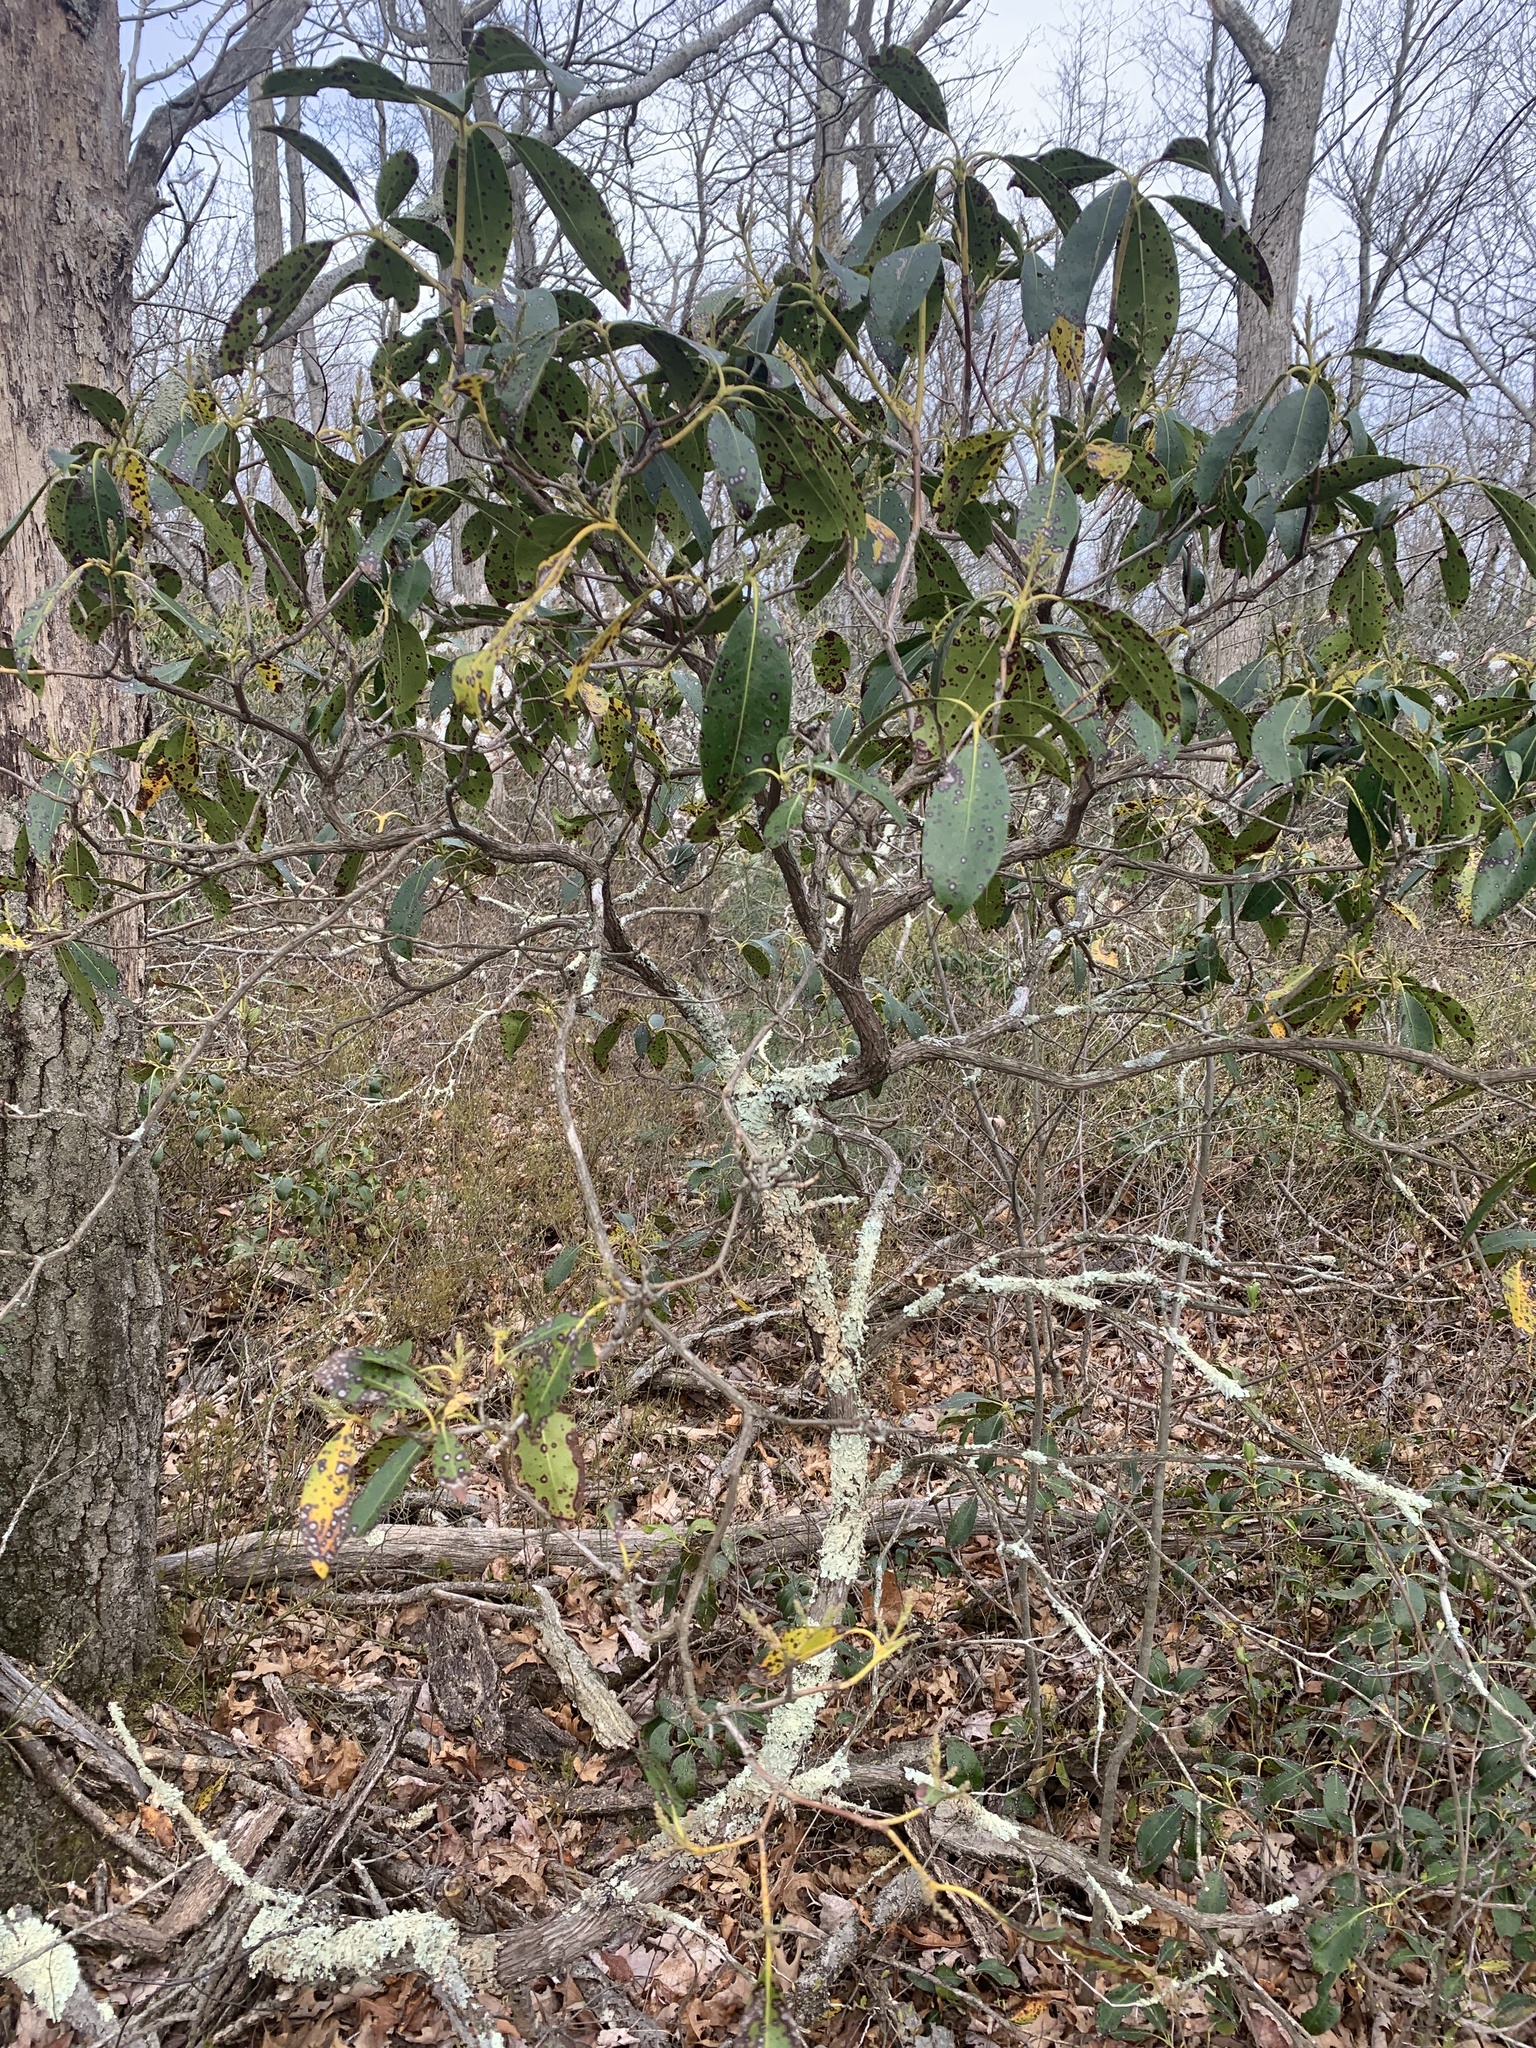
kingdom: Plantae
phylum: Tracheophyta
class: Magnoliopsida
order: Ericales
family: Ericaceae
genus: Kalmia
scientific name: Kalmia latifolia
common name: Mountain-laurel
